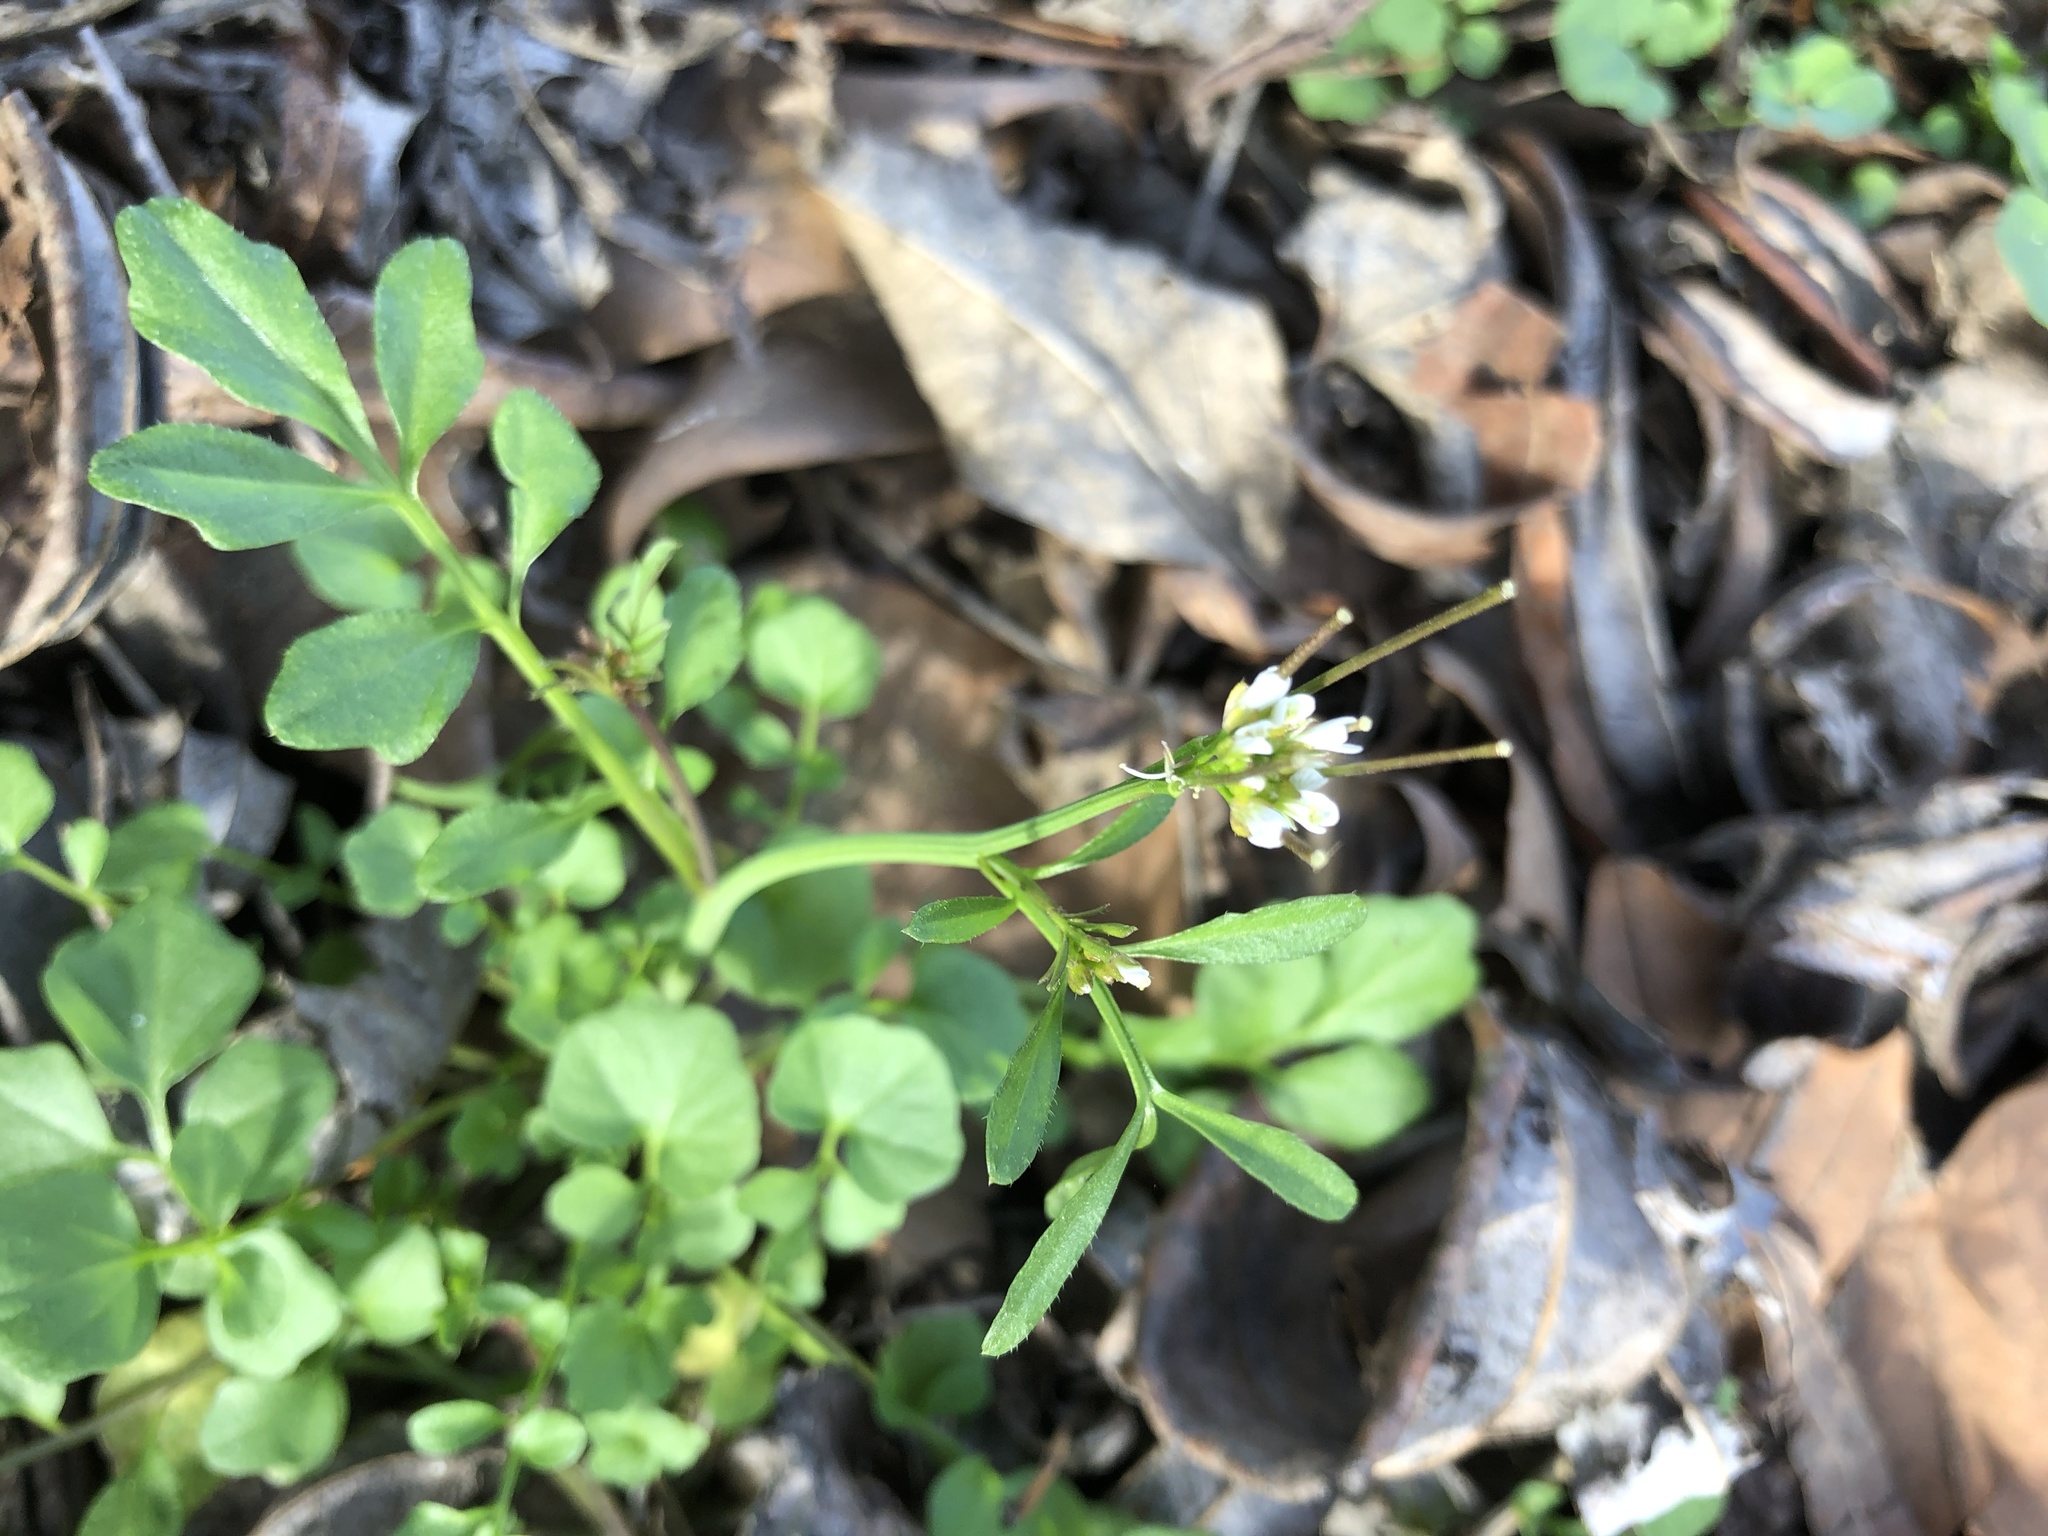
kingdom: Plantae
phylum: Tracheophyta
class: Magnoliopsida
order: Brassicales
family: Brassicaceae
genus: Cardamine
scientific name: Cardamine hirsuta
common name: Hairy bittercress
